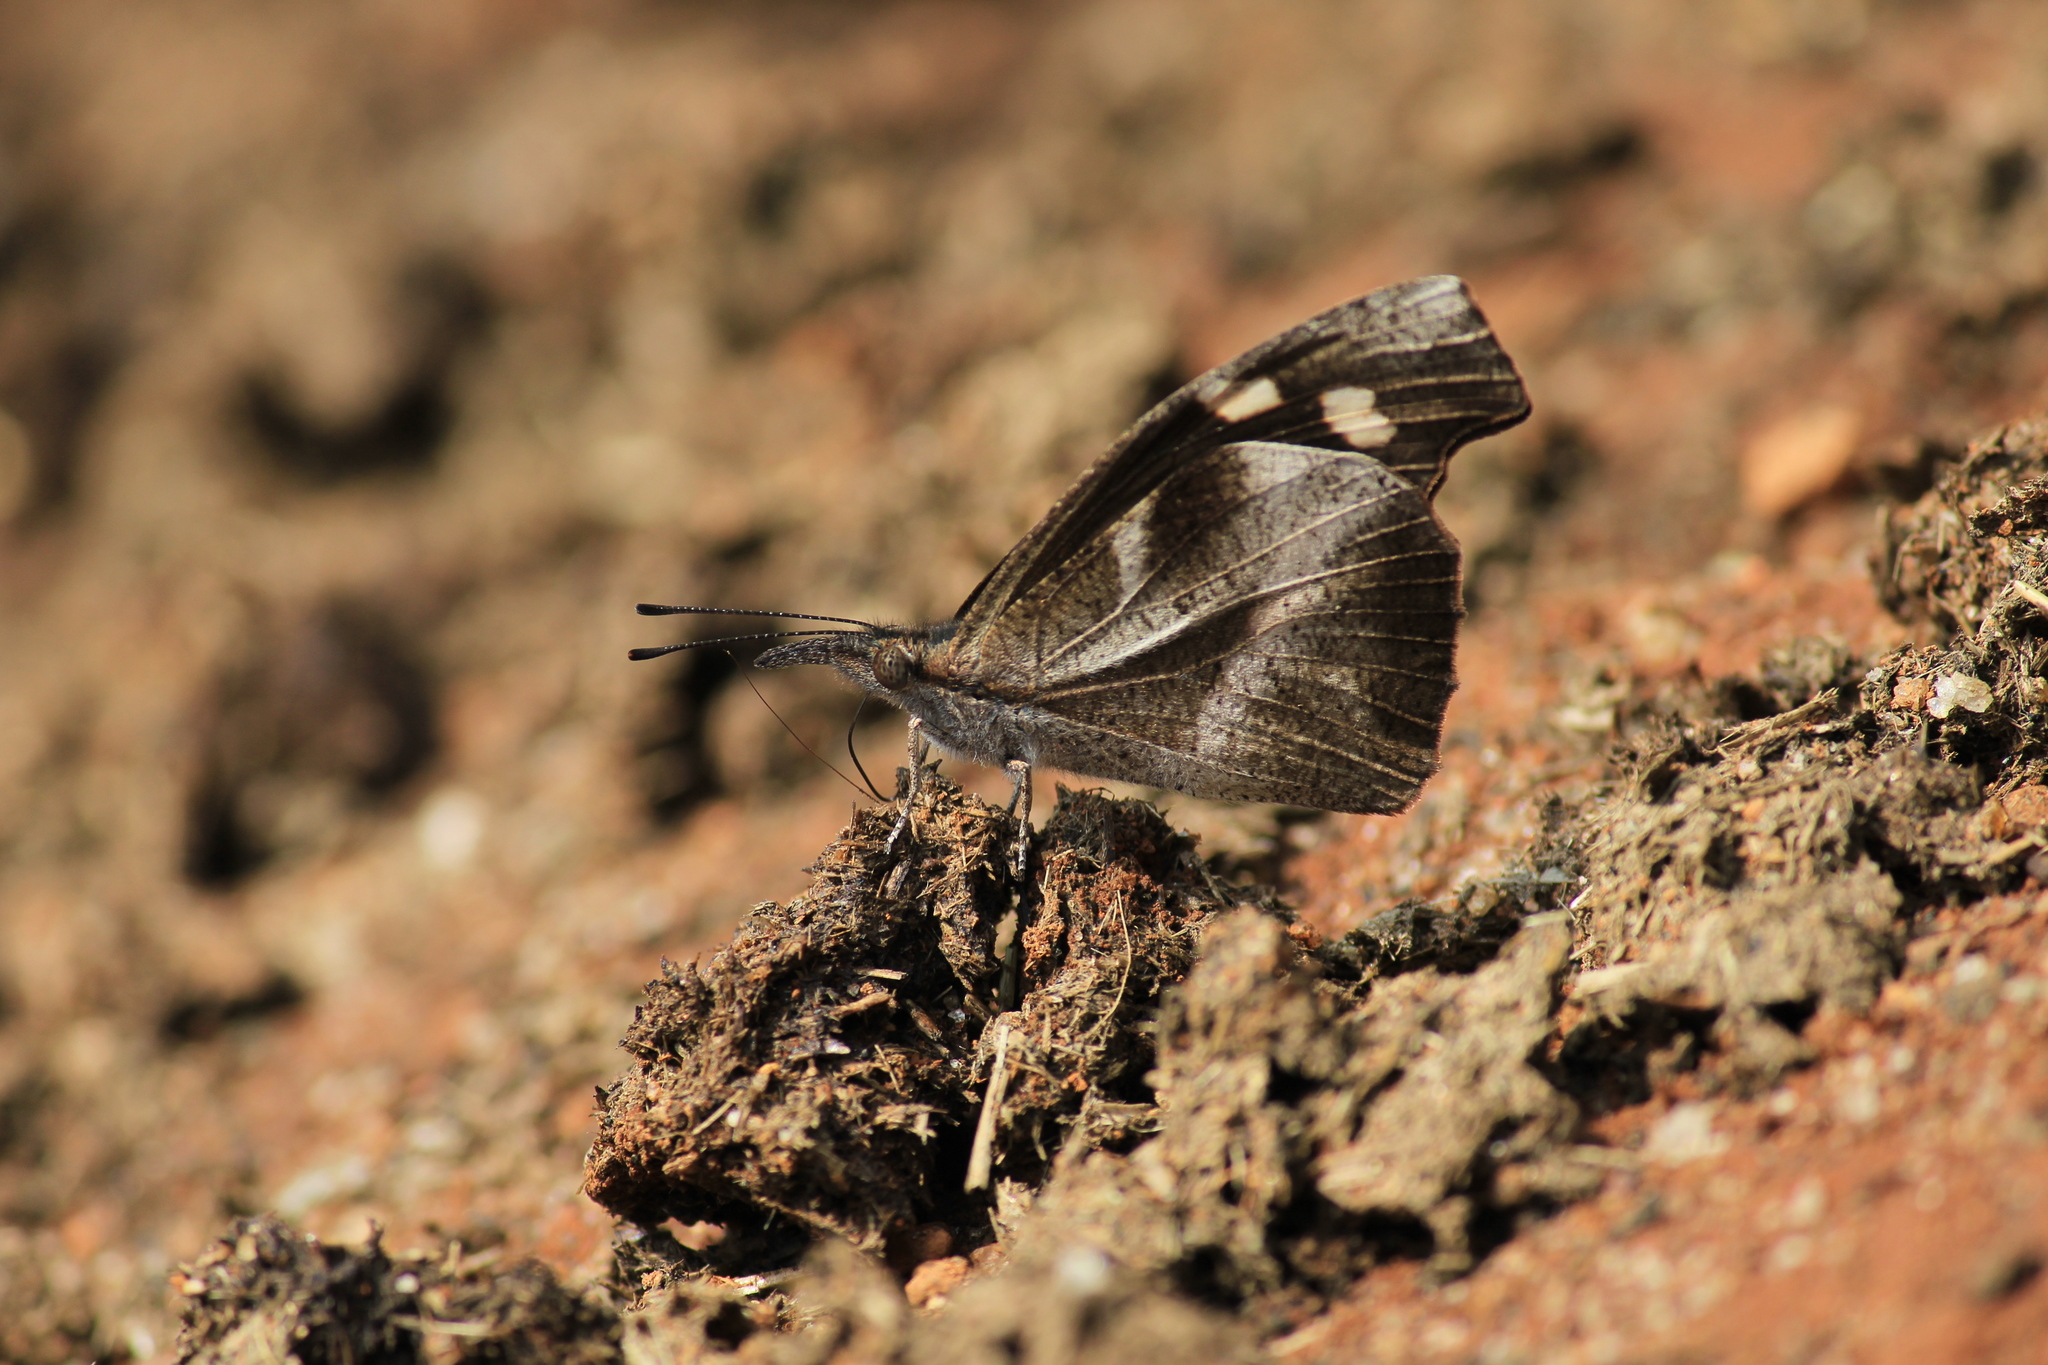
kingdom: Animalia
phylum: Arthropoda
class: Insecta
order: Lepidoptera
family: Nymphalidae
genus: Libythea
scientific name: Libythea myrrha
